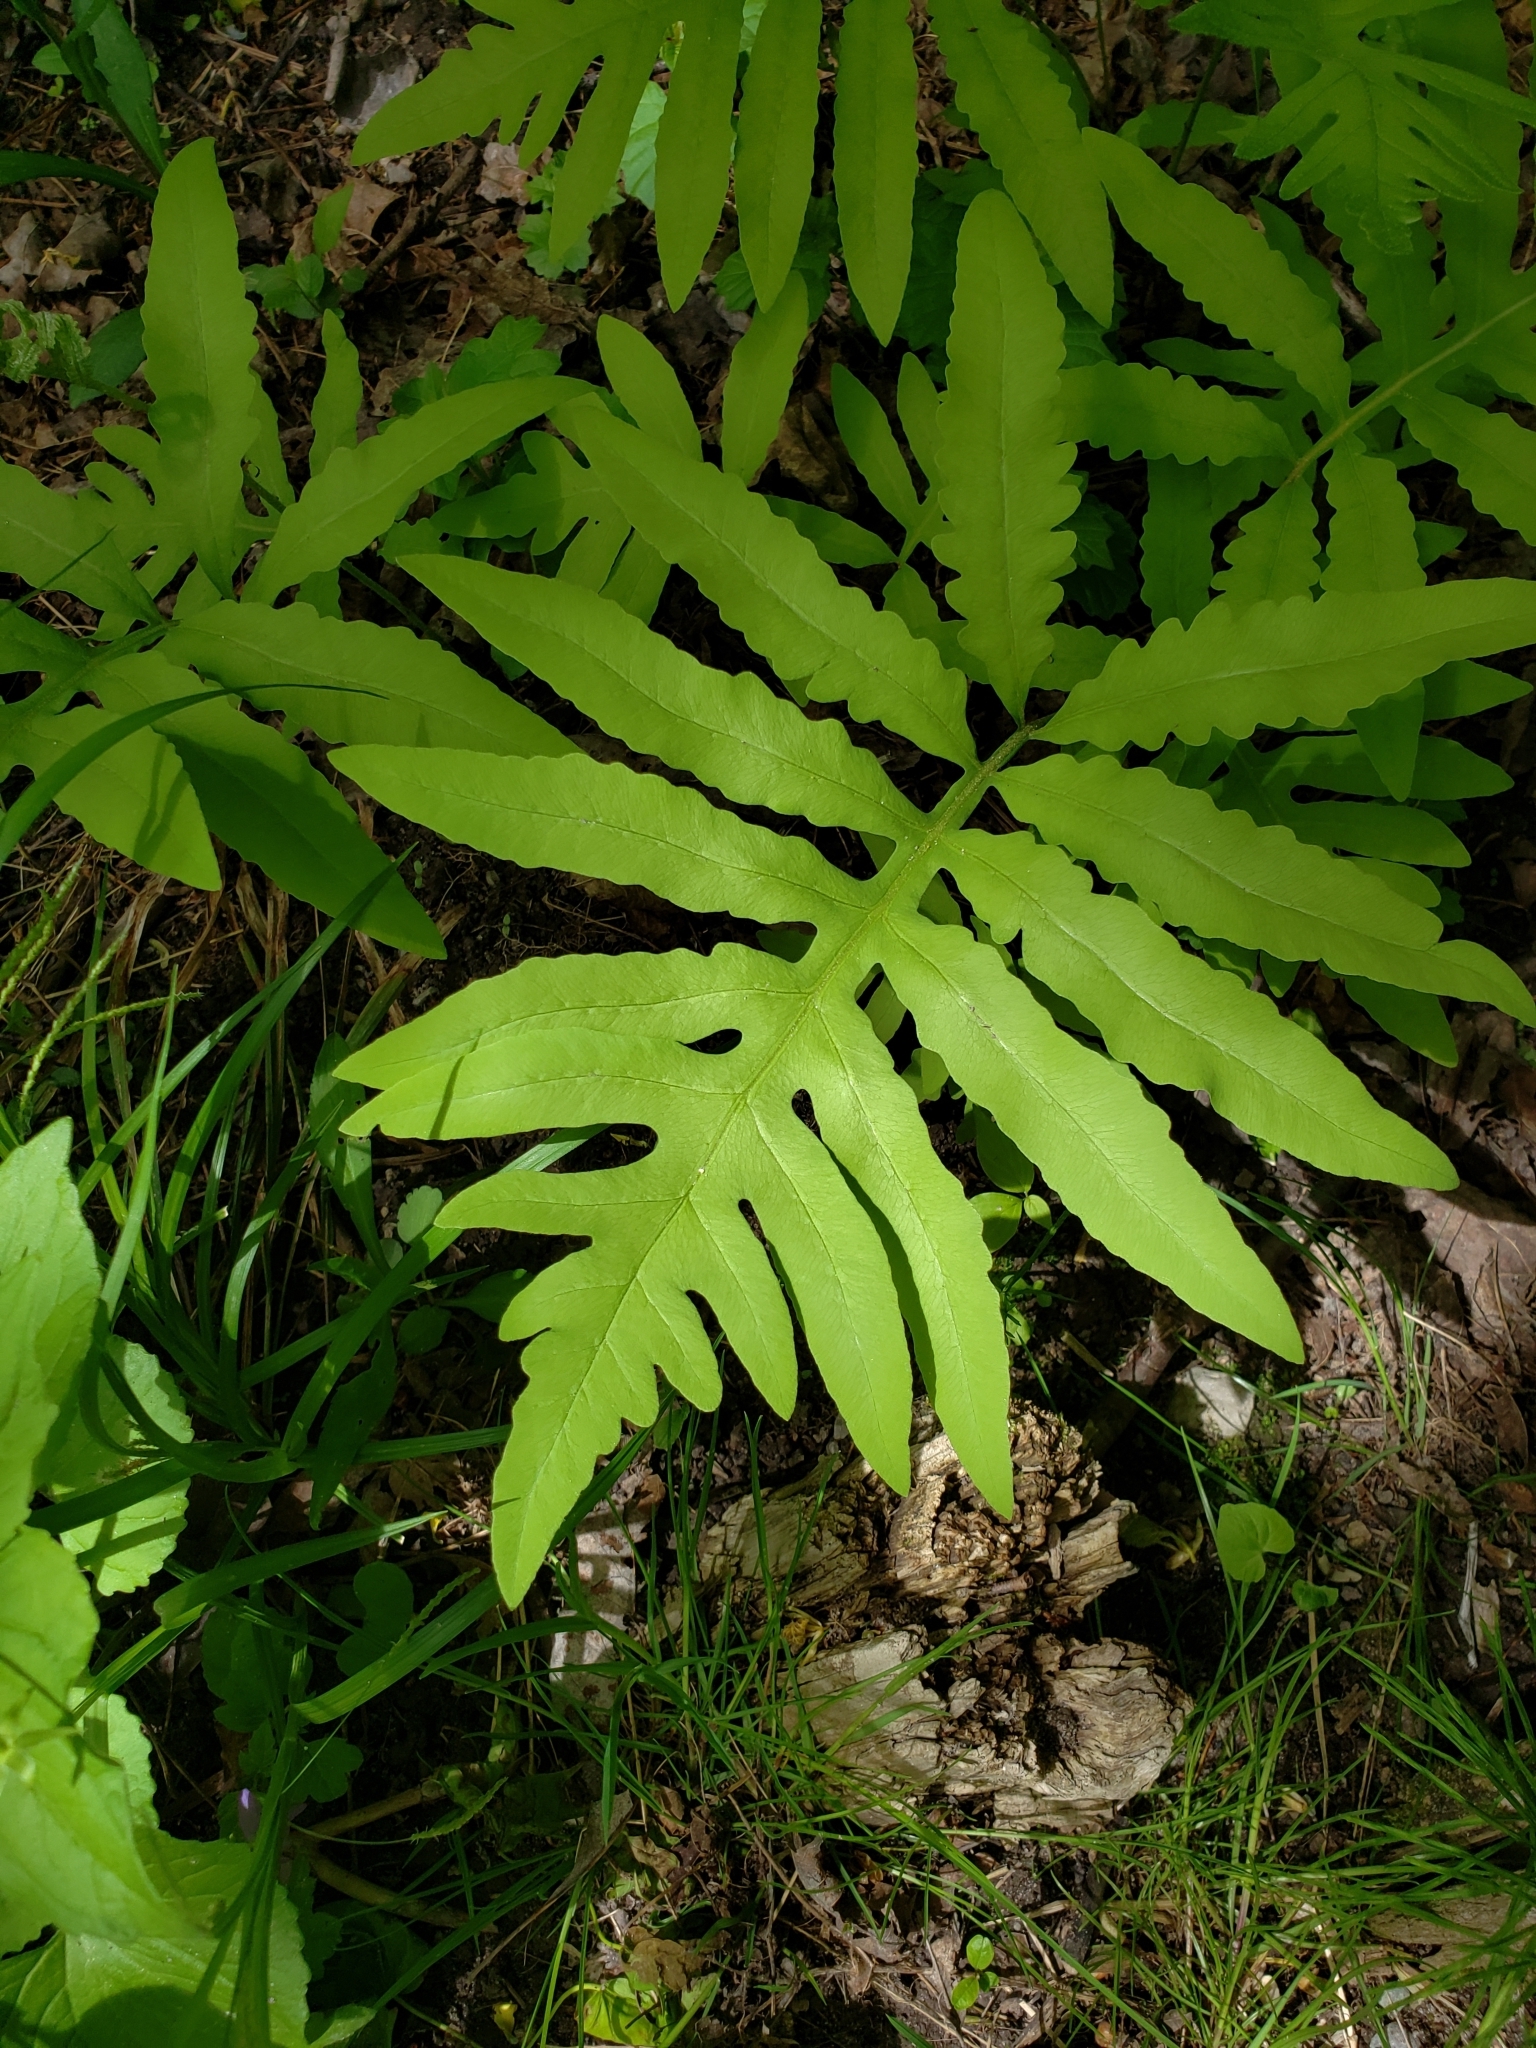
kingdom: Plantae
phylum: Tracheophyta
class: Polypodiopsida
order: Polypodiales
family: Onocleaceae
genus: Onoclea
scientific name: Onoclea sensibilis
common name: Sensitive fern
